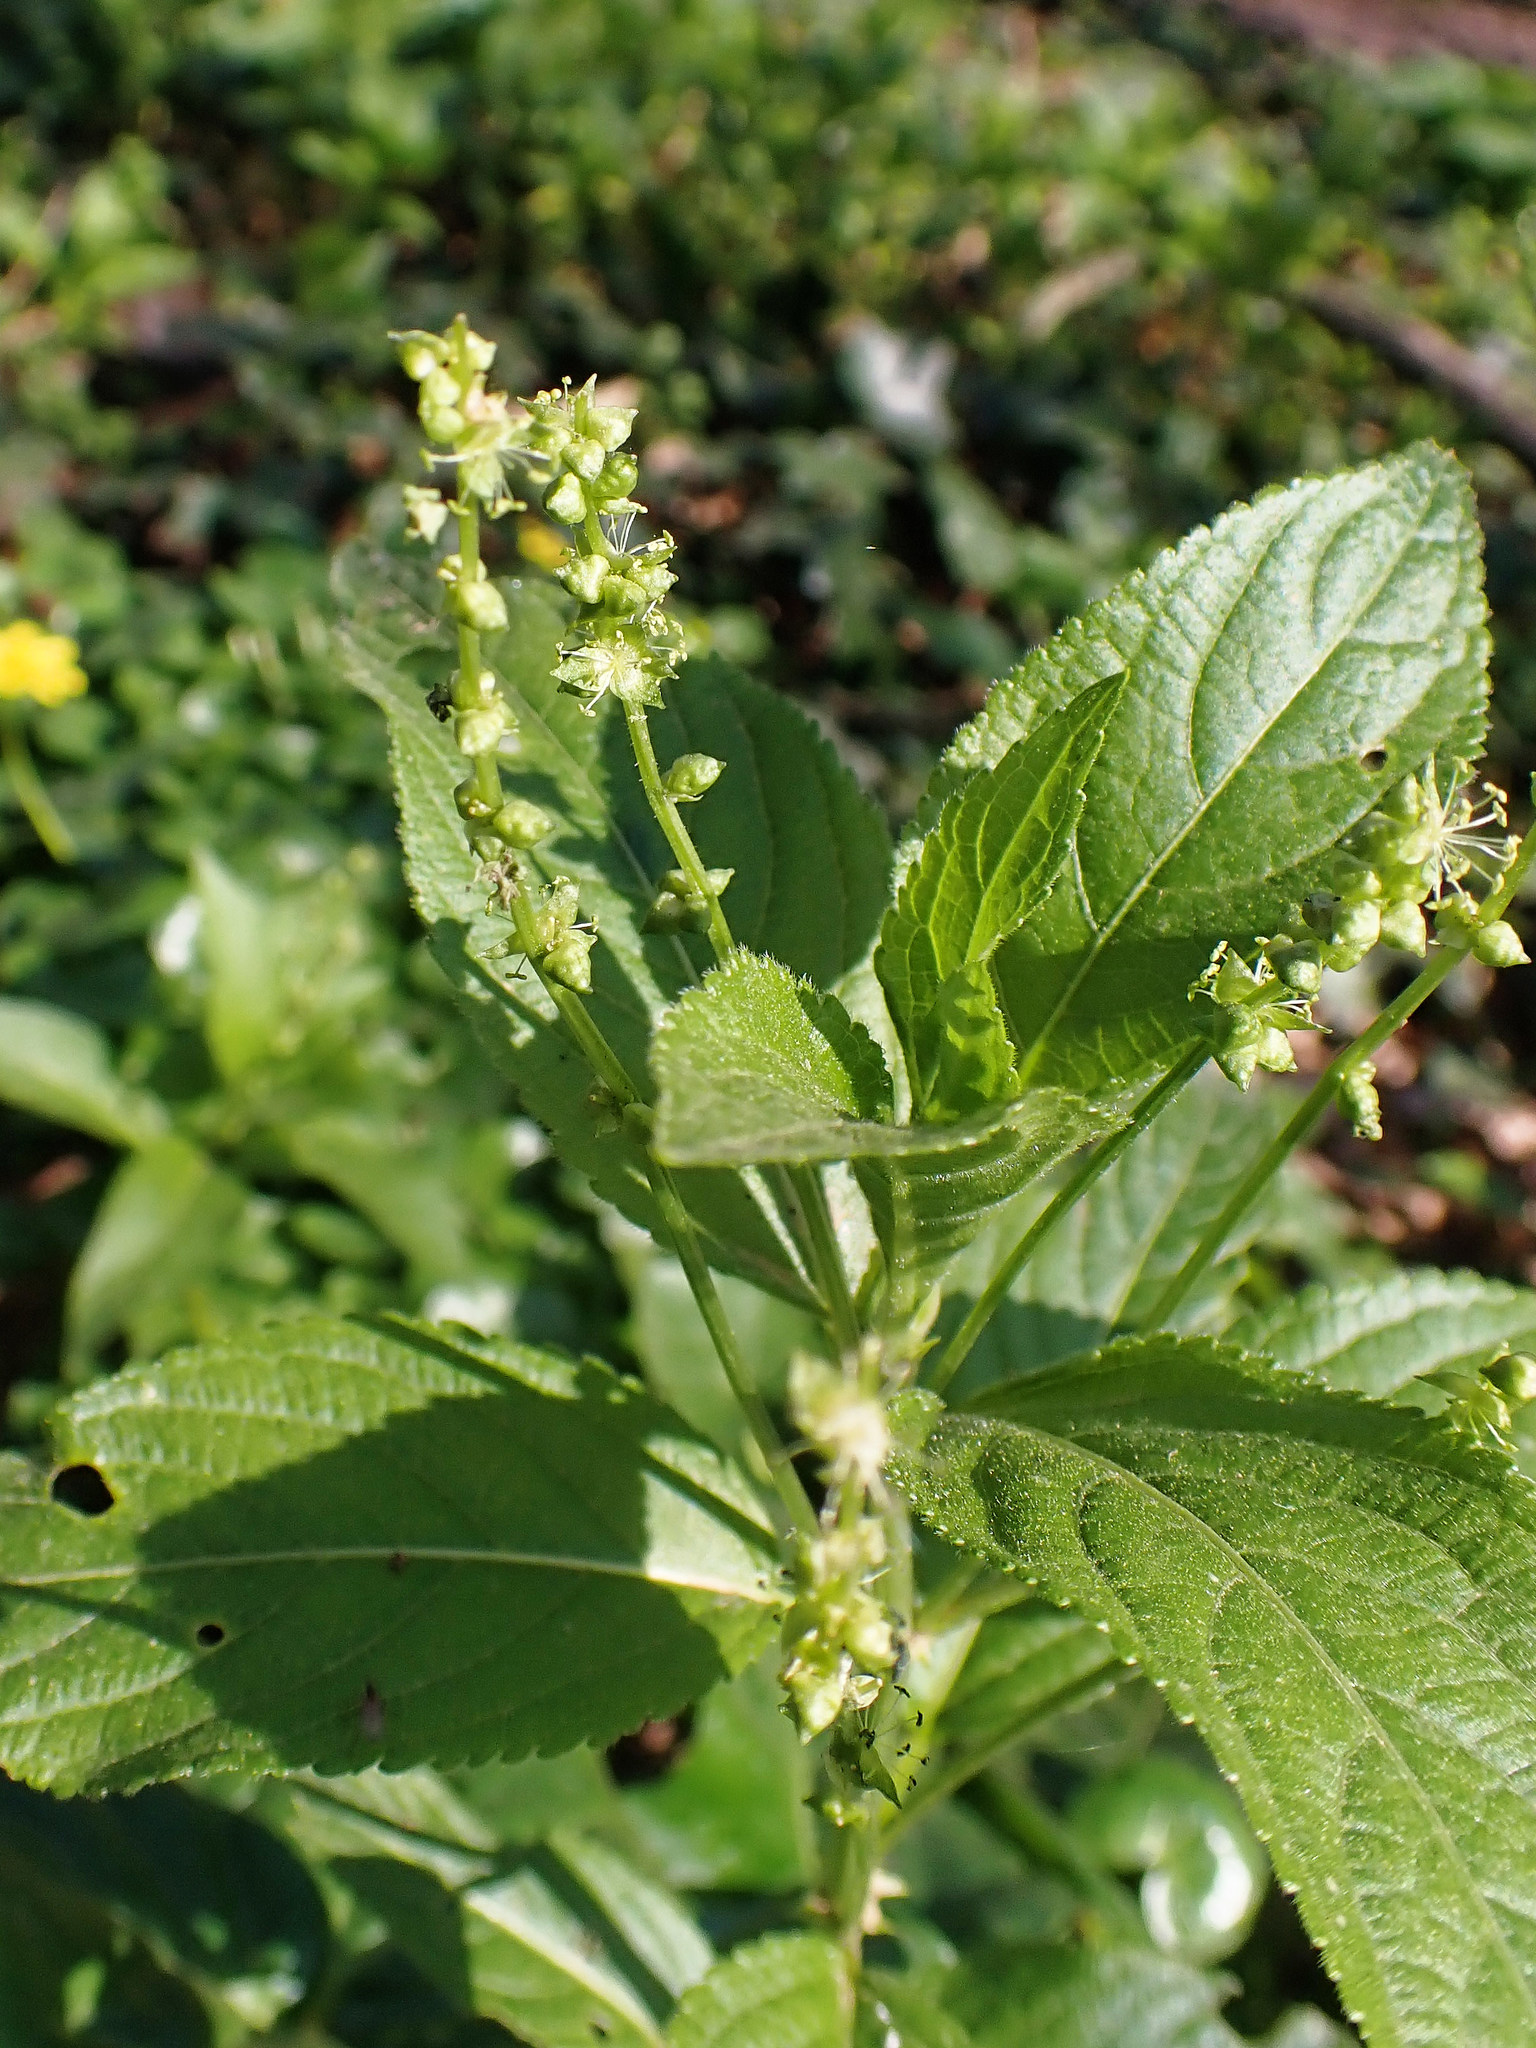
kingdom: Plantae
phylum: Tracheophyta
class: Magnoliopsida
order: Malpighiales
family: Euphorbiaceae
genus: Mercurialis
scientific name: Mercurialis perennis
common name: Dog mercury
